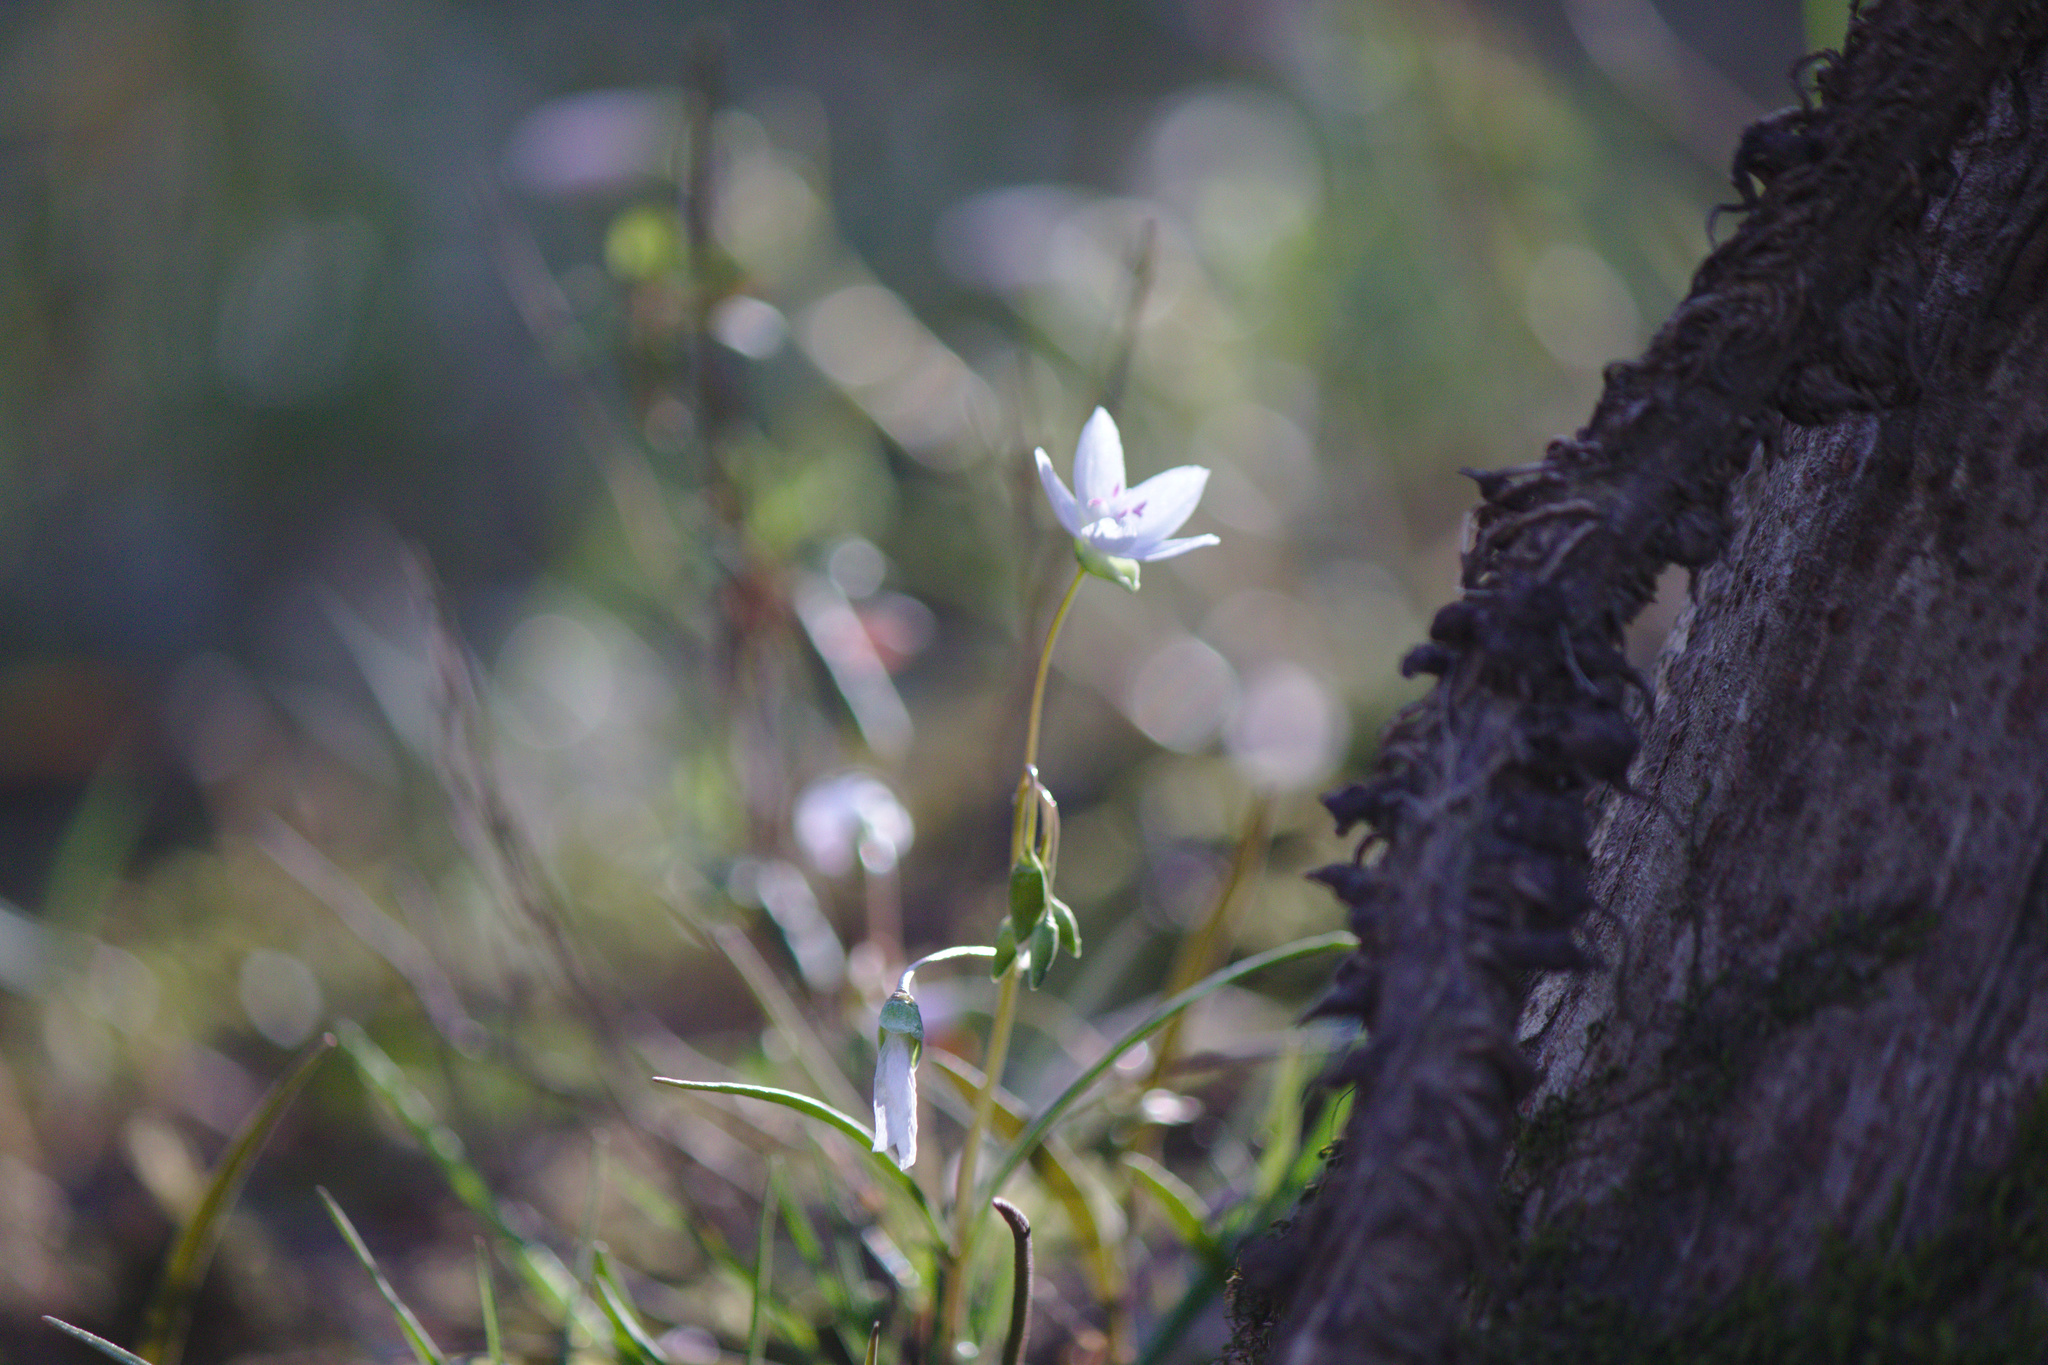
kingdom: Plantae
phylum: Tracheophyta
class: Magnoliopsida
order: Caryophyllales
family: Montiaceae
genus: Claytonia
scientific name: Claytonia virginica
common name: Virginia springbeauty
